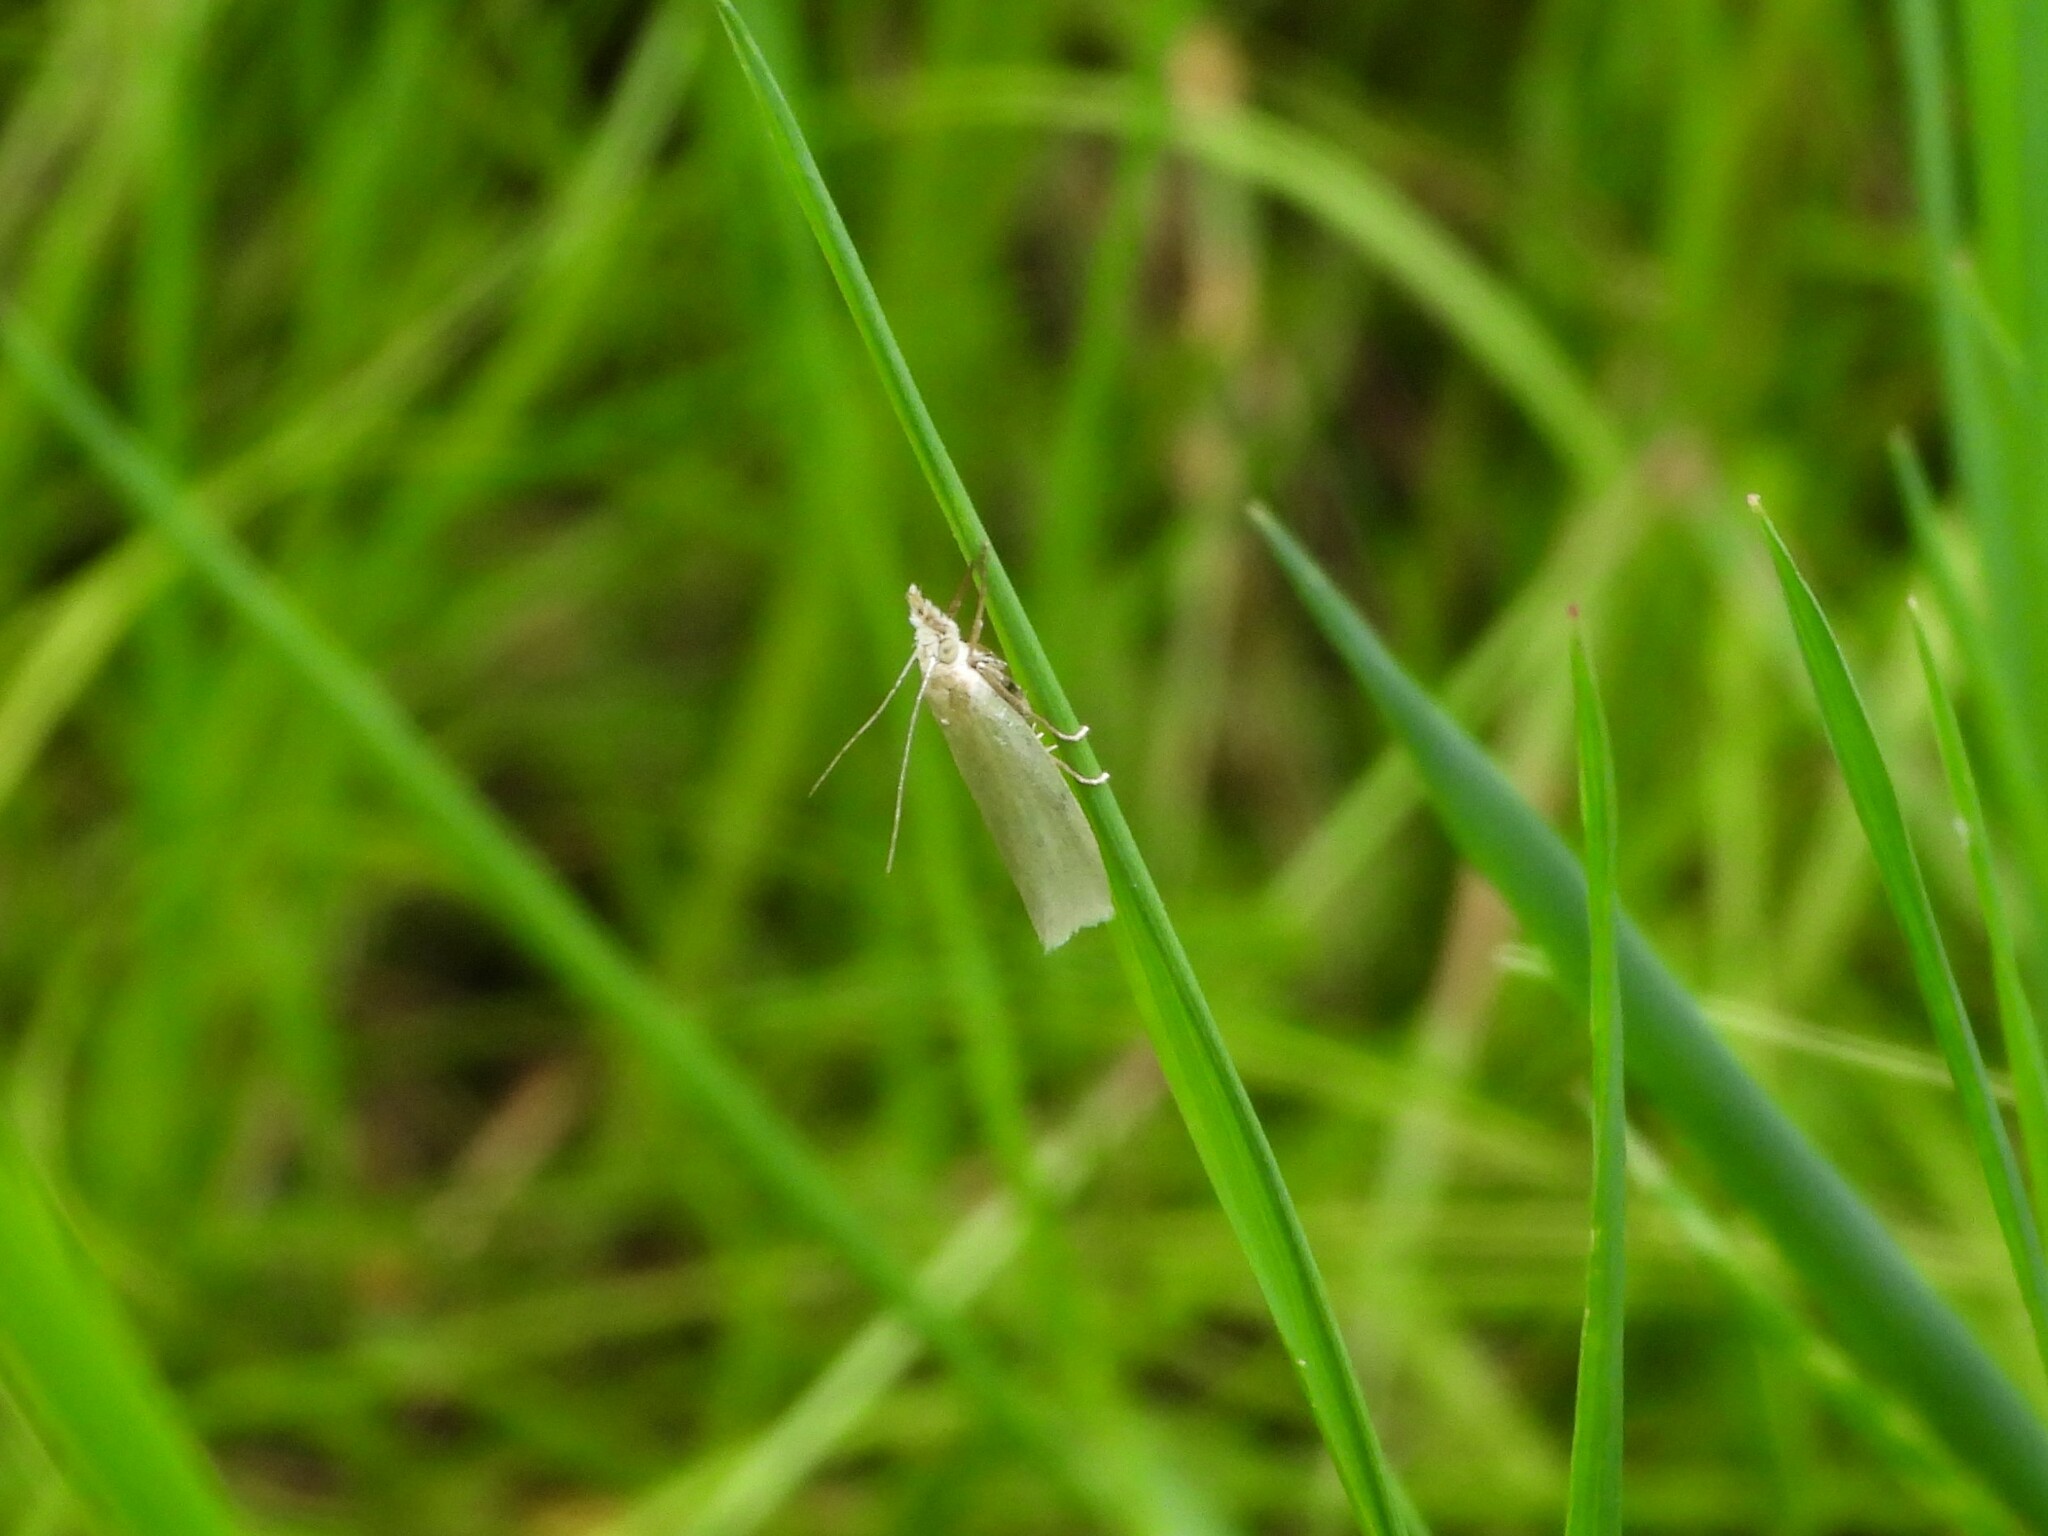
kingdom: Animalia
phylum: Arthropoda
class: Insecta
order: Lepidoptera
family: Crambidae
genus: Crambus
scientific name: Crambus perlellus
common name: Yellow satin veneer
